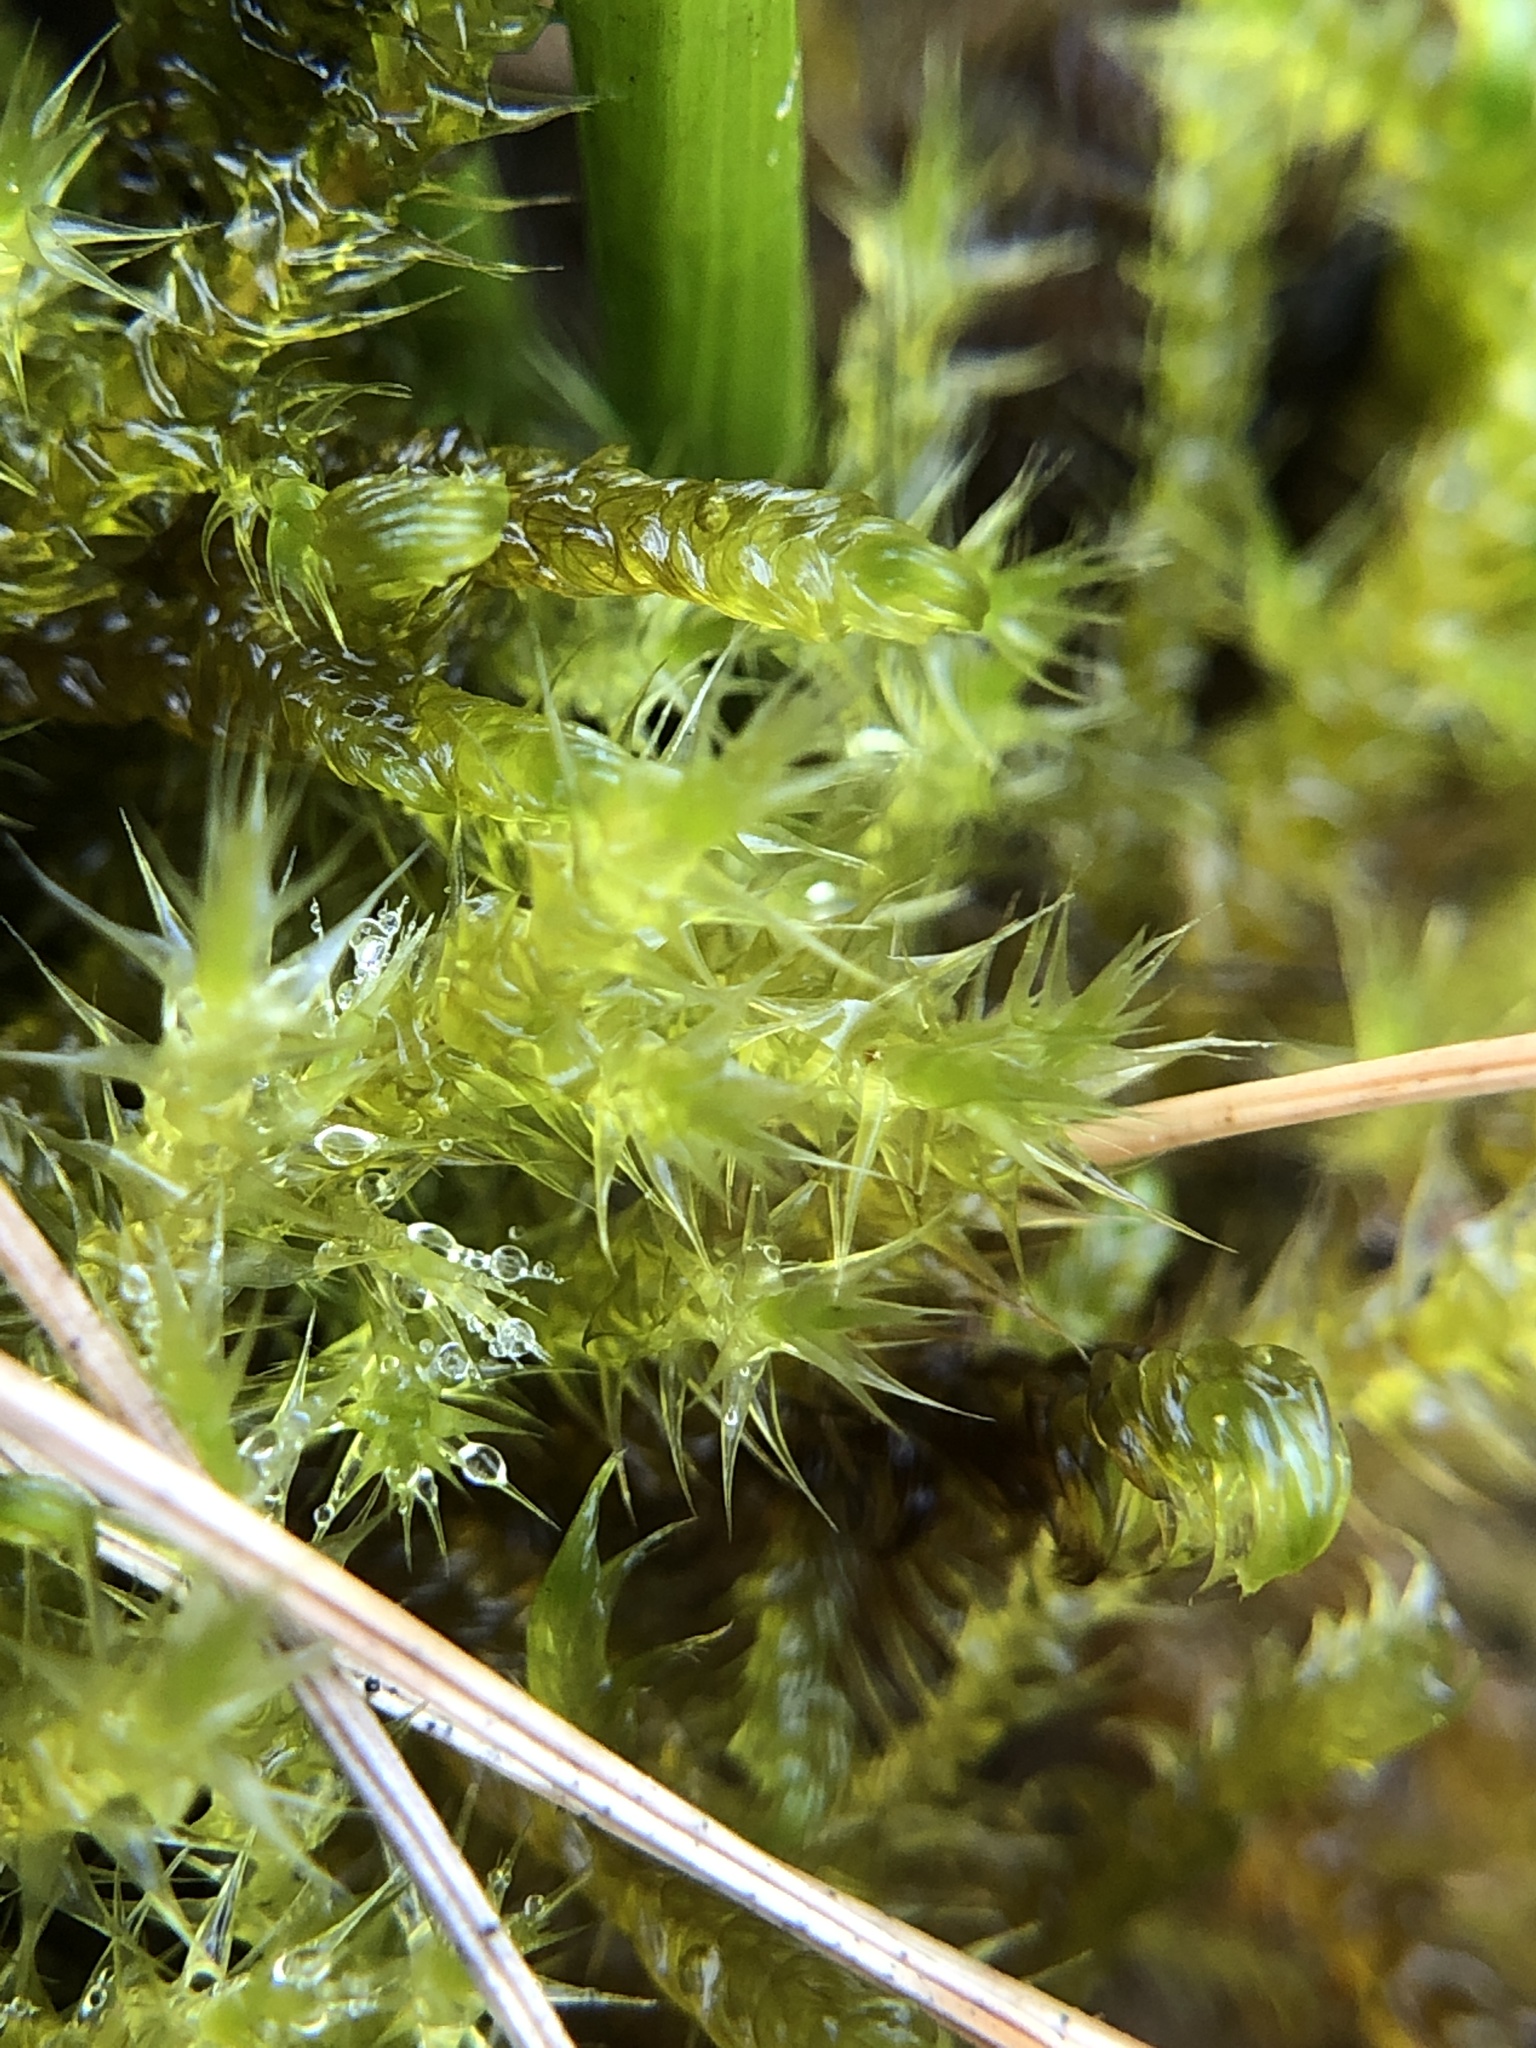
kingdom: Plantae
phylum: Bryophyta
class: Bryopsida
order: Hypnales
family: Amblystegiaceae
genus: Campylium
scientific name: Campylium stellatum
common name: Yellow starry fen moss
